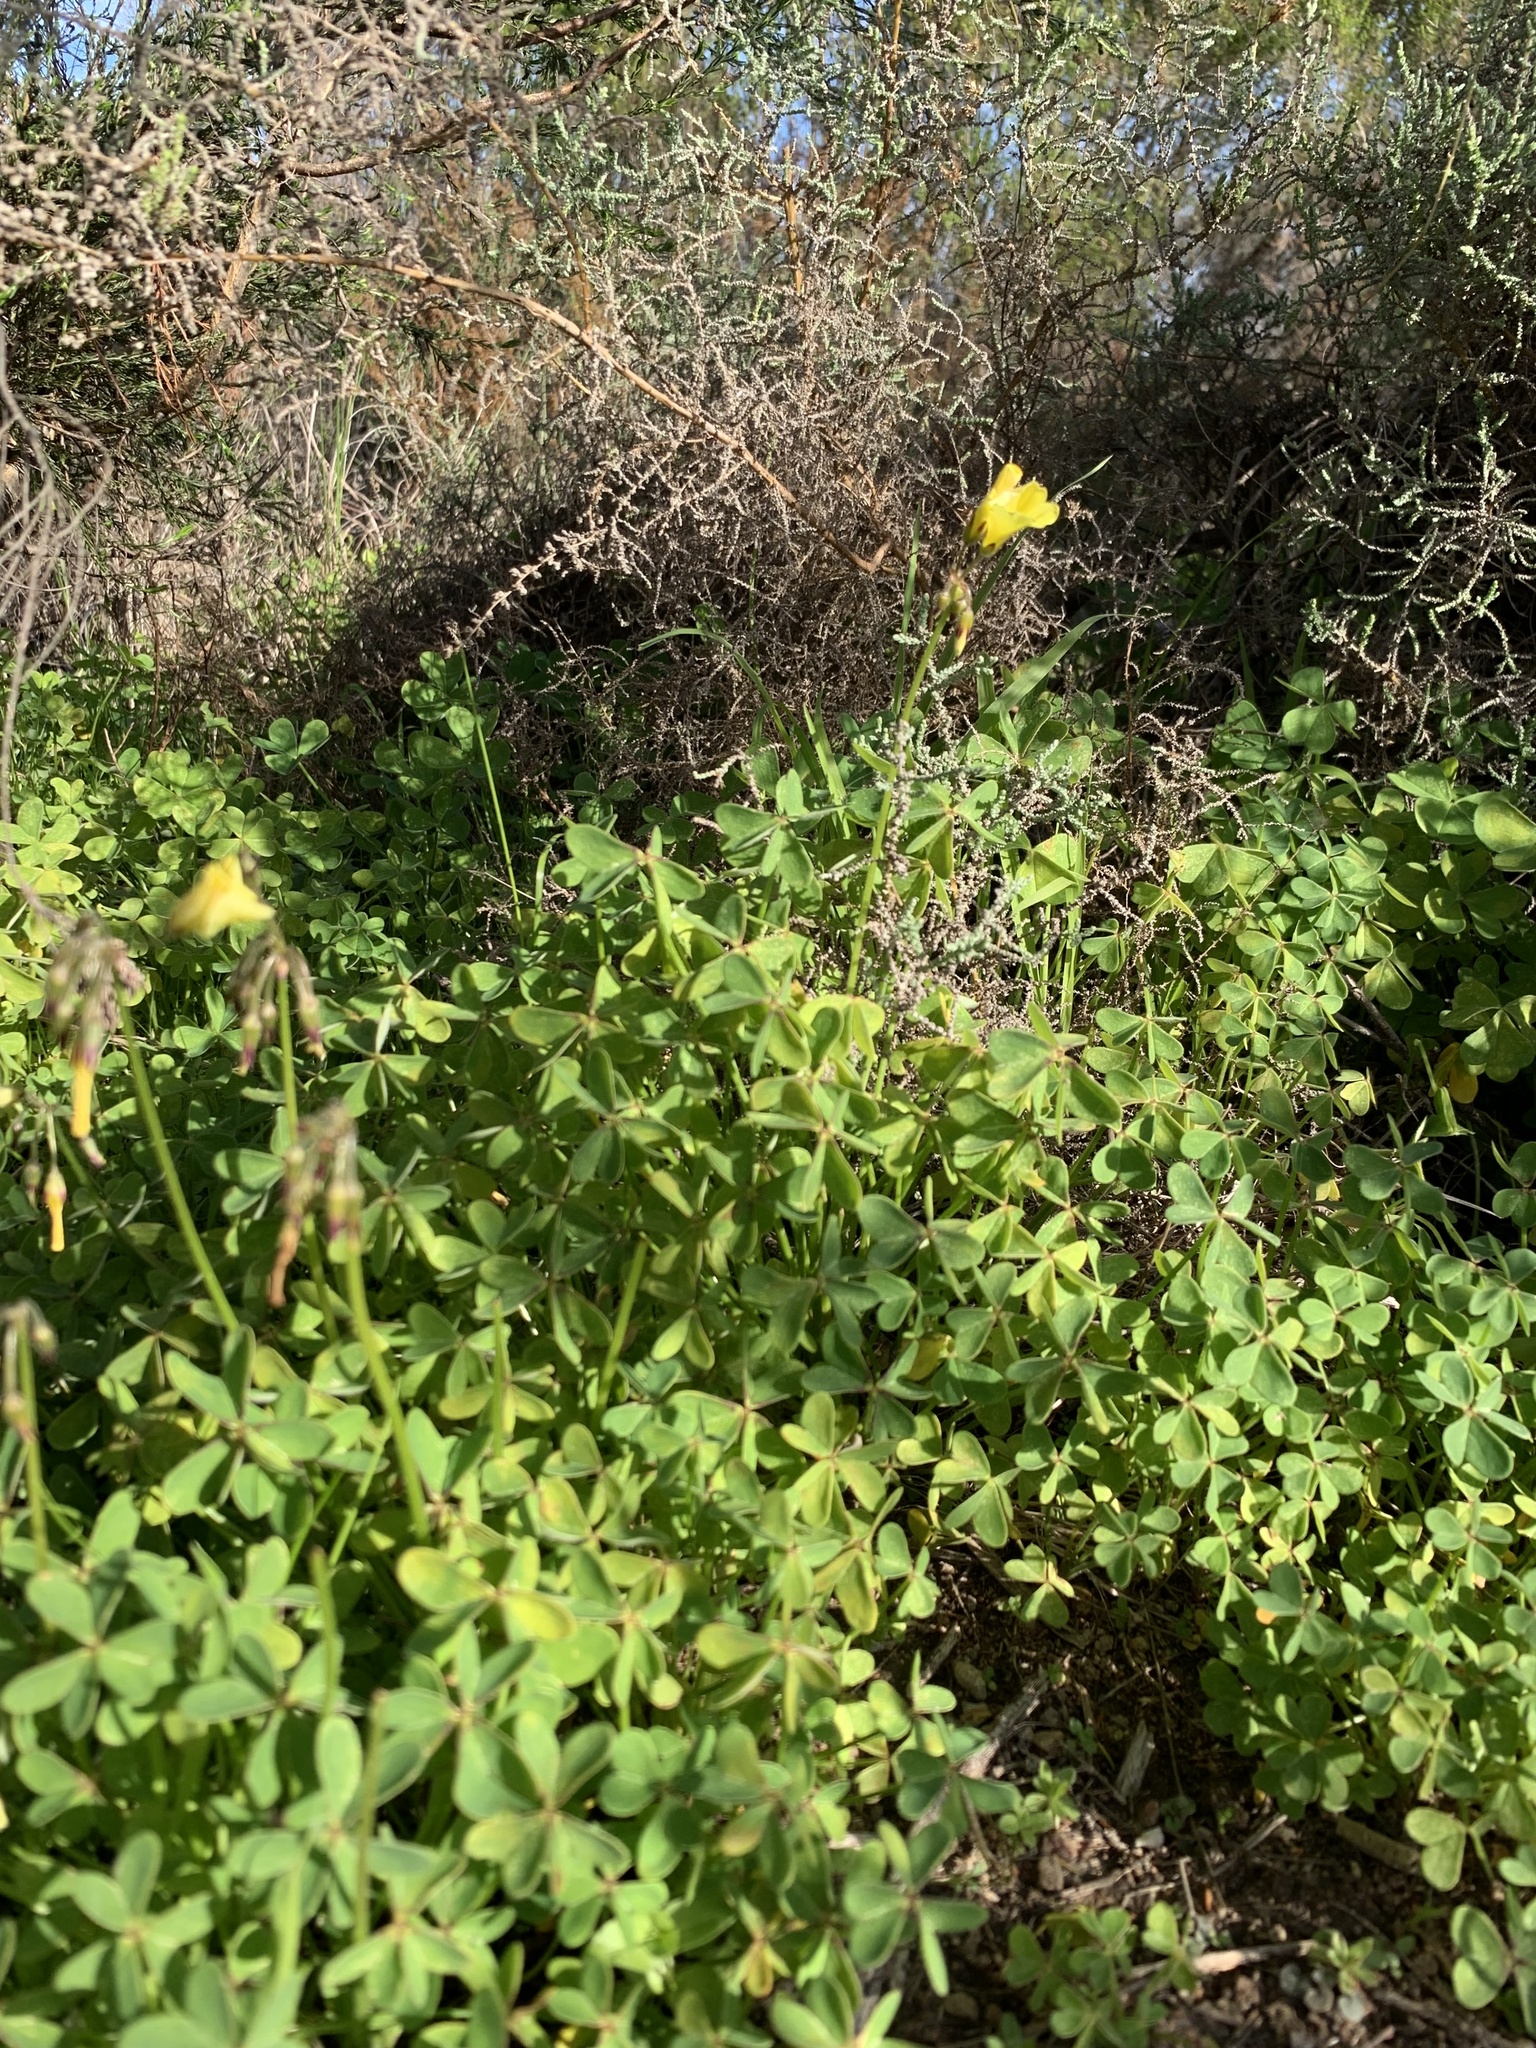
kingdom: Plantae
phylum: Tracheophyta
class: Magnoliopsida
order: Oxalidales
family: Oxalidaceae
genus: Oxalis
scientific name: Oxalis pes-caprae
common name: Bermuda-buttercup
